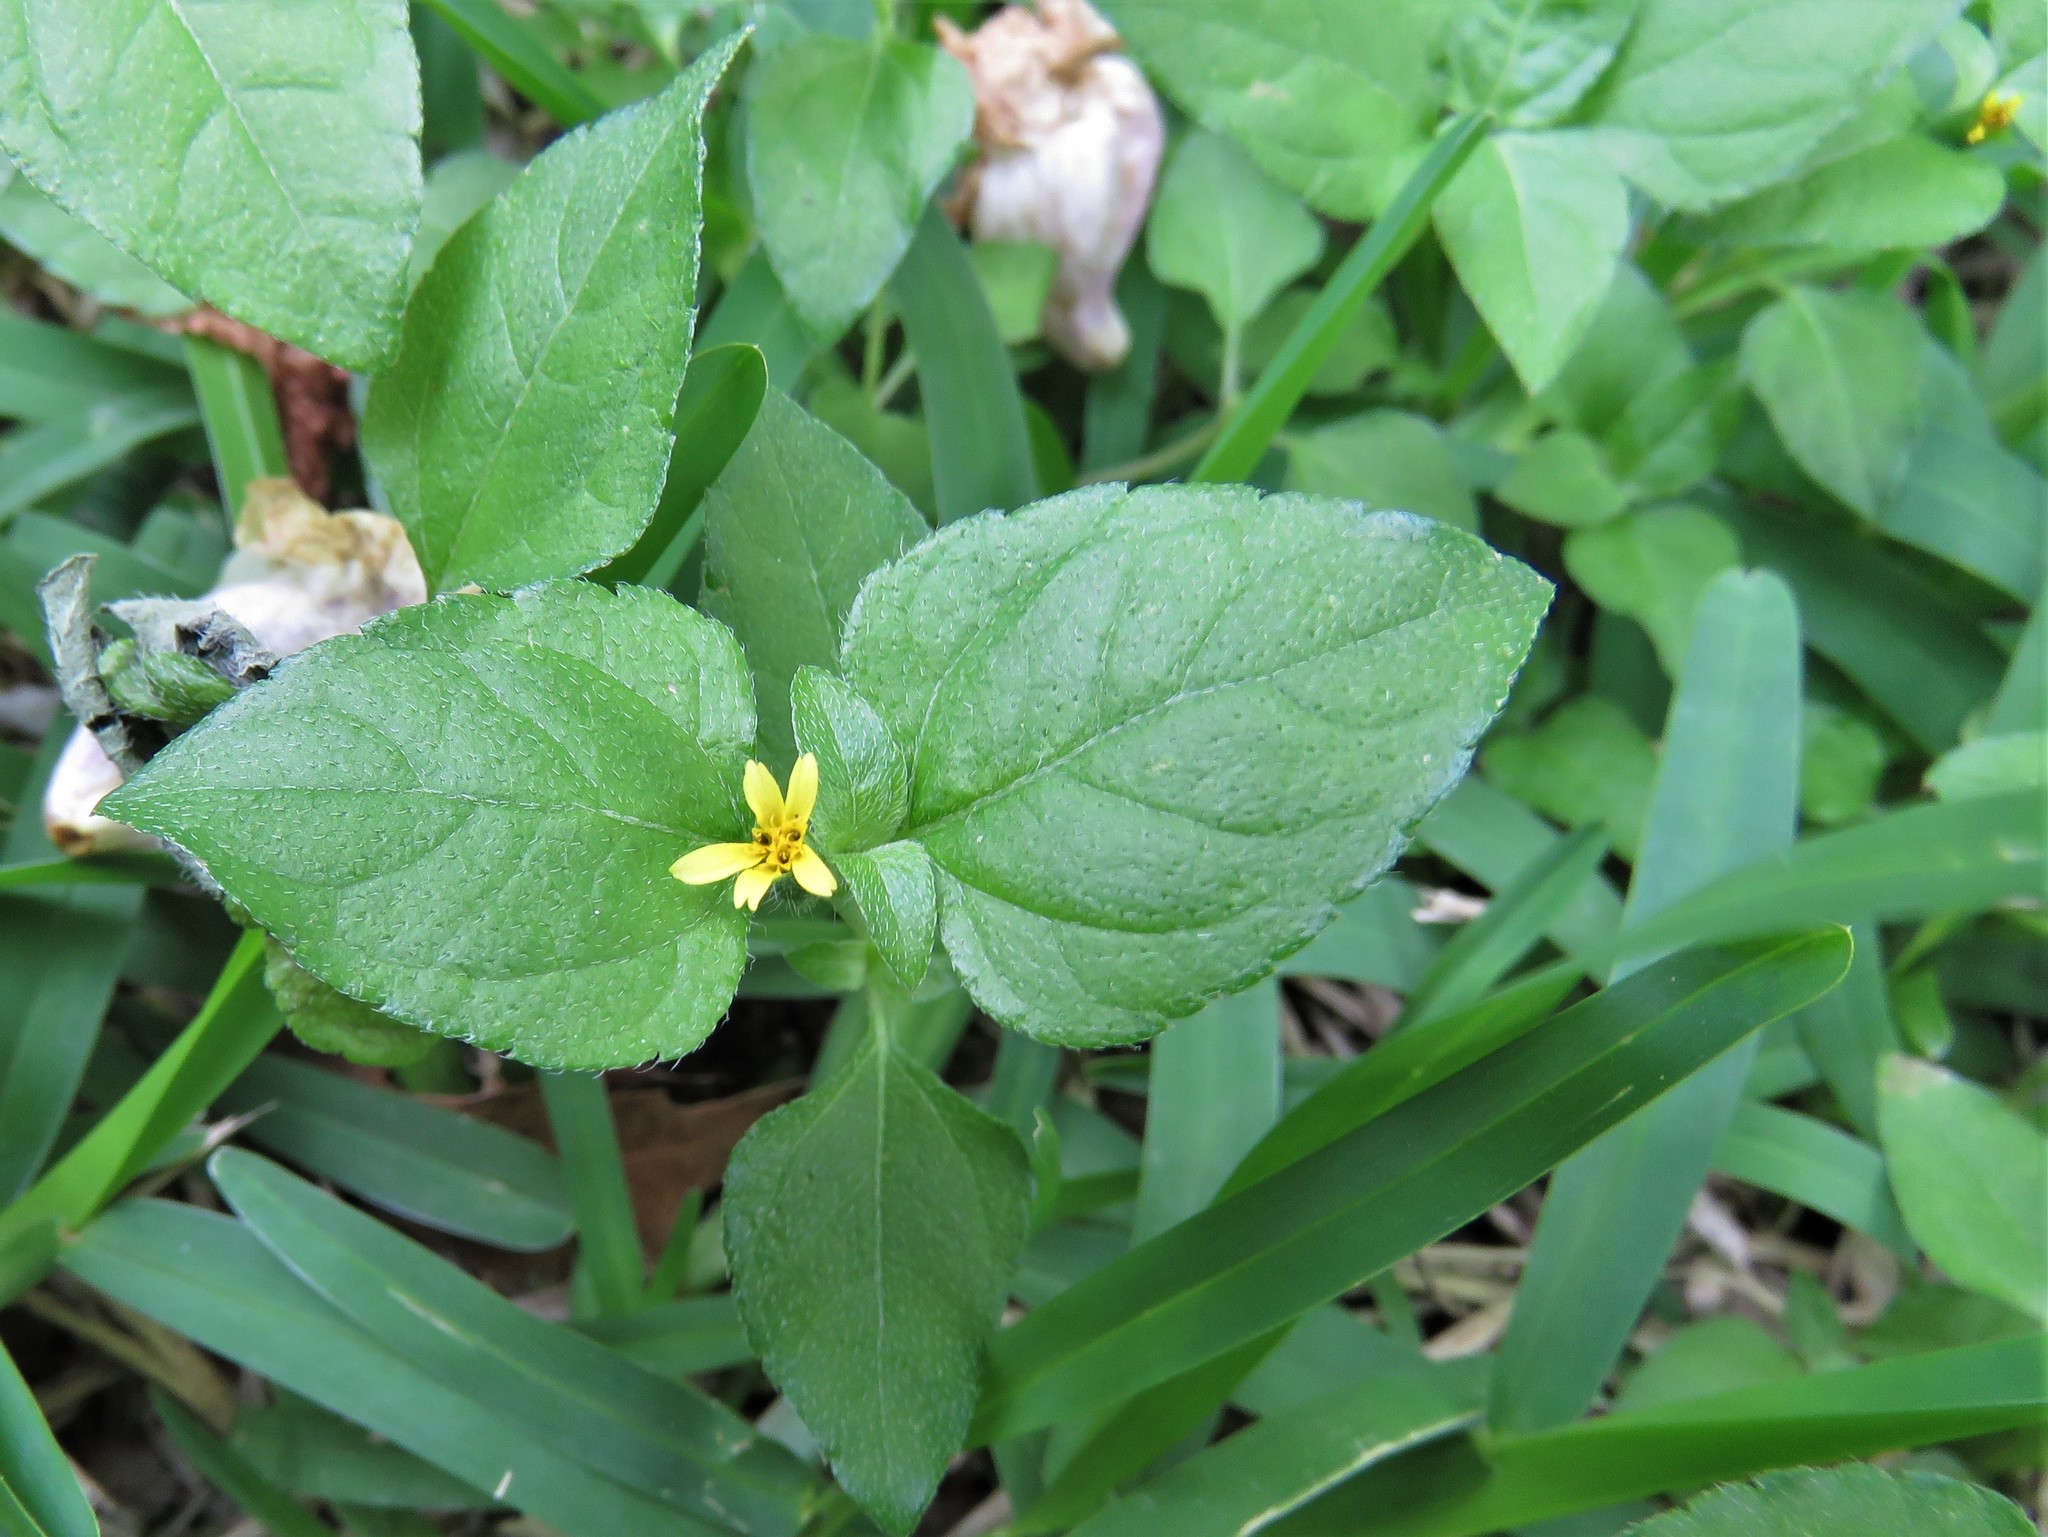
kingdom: Plantae
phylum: Tracheophyta
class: Magnoliopsida
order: Asterales
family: Asteraceae
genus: Calyptocarpus
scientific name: Calyptocarpus vialis
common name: Straggler daisy
